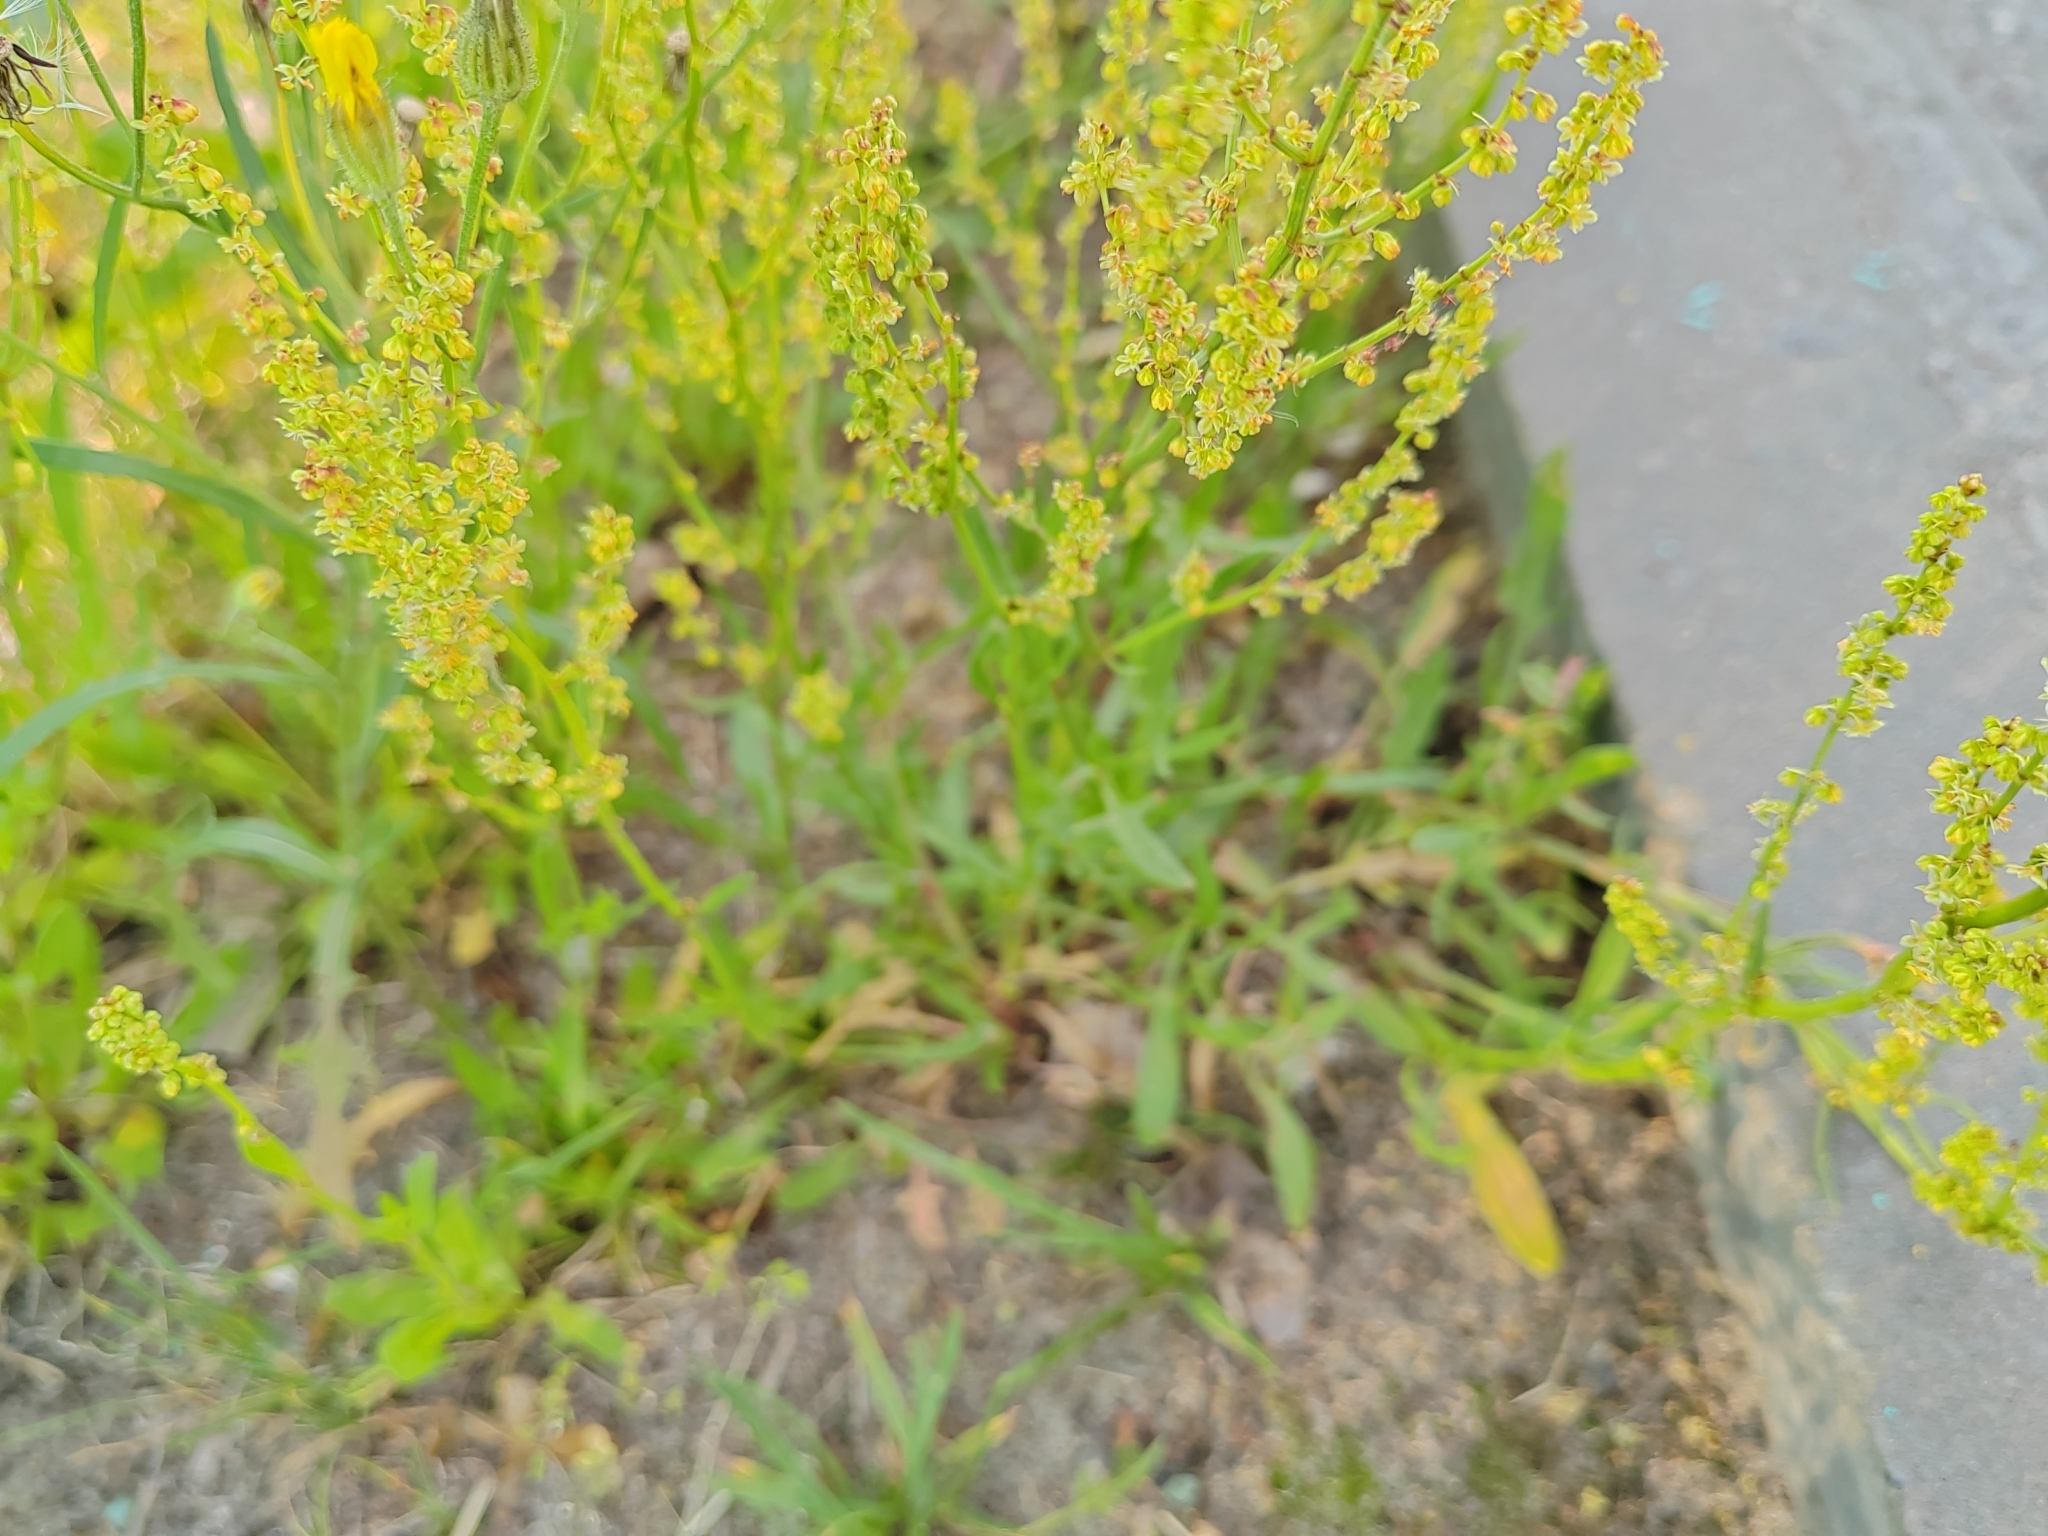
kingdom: Plantae
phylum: Tracheophyta
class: Magnoliopsida
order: Caryophyllales
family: Polygonaceae
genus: Rumex
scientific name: Rumex acetosella
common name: Common sheep sorrel
